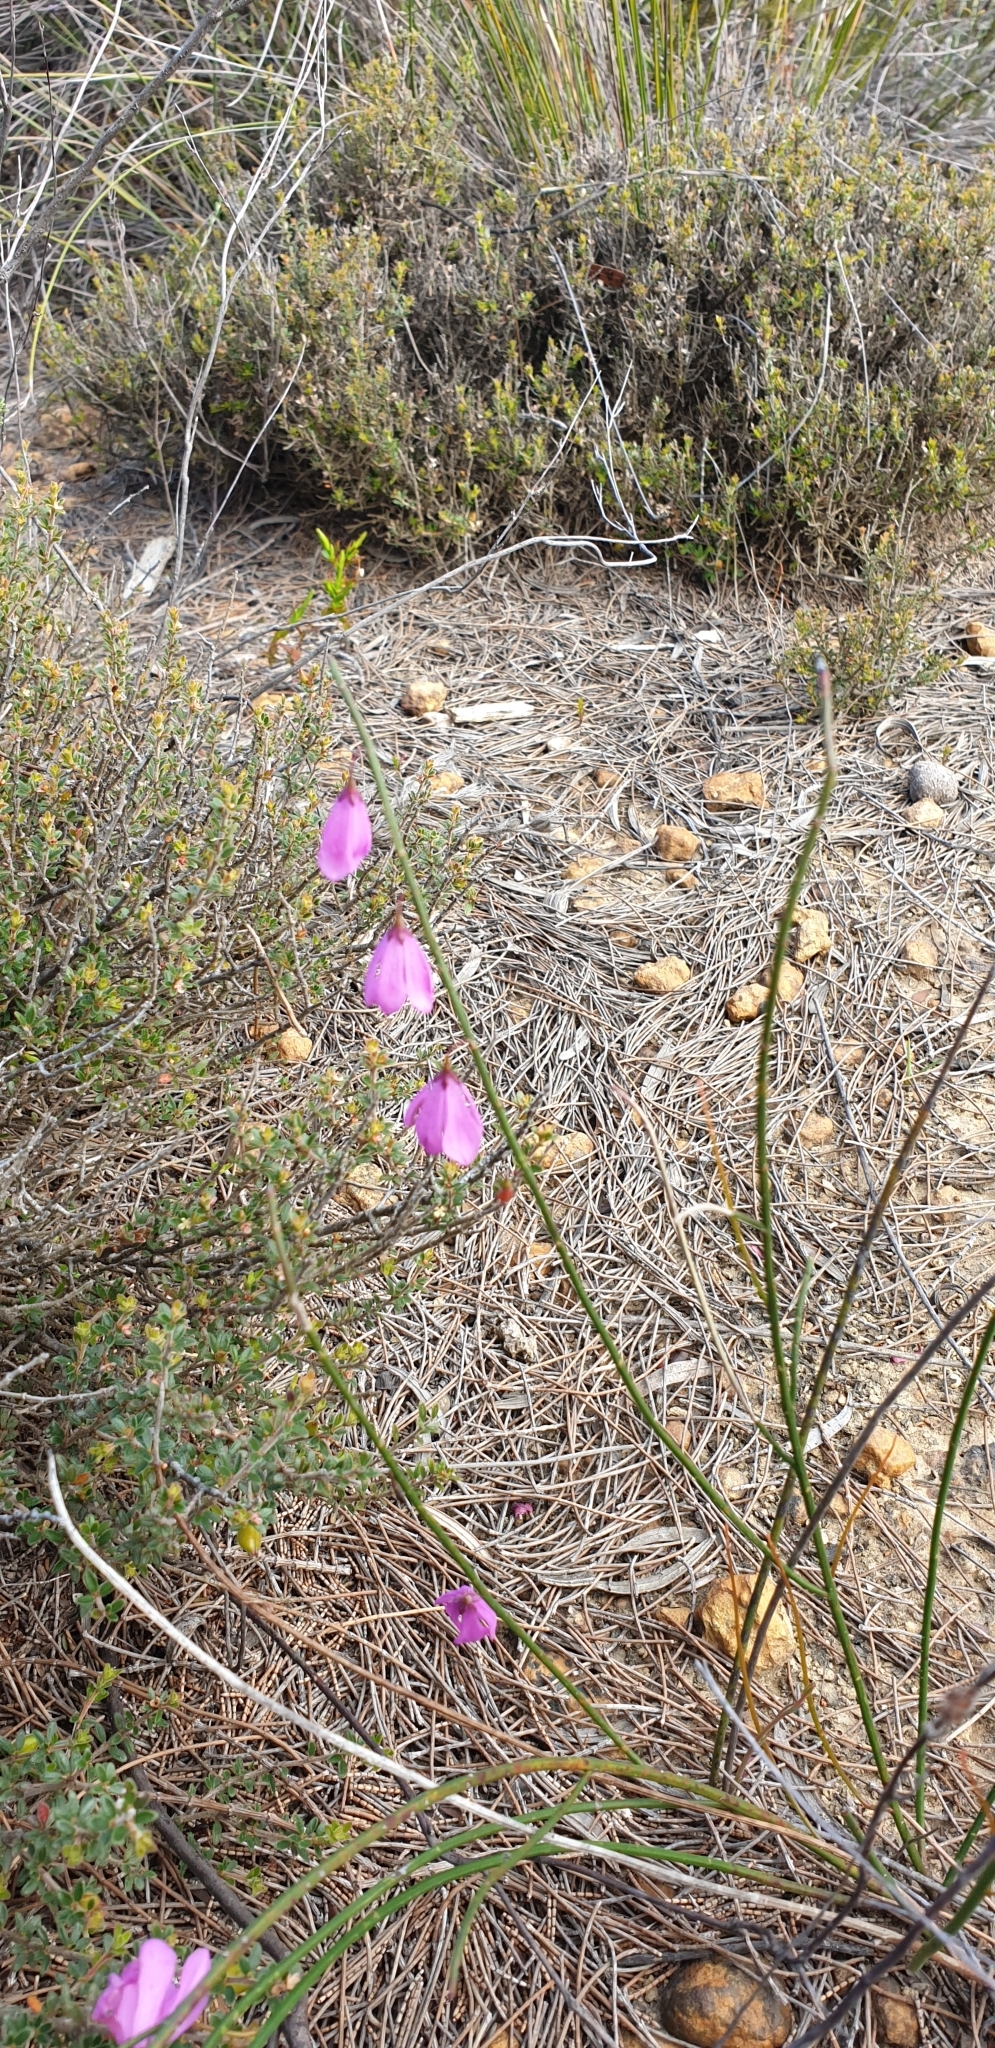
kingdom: Plantae
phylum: Tracheophyta
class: Magnoliopsida
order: Oxalidales
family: Elaeocarpaceae
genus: Tetratheca
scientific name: Tetratheca halmaturina
